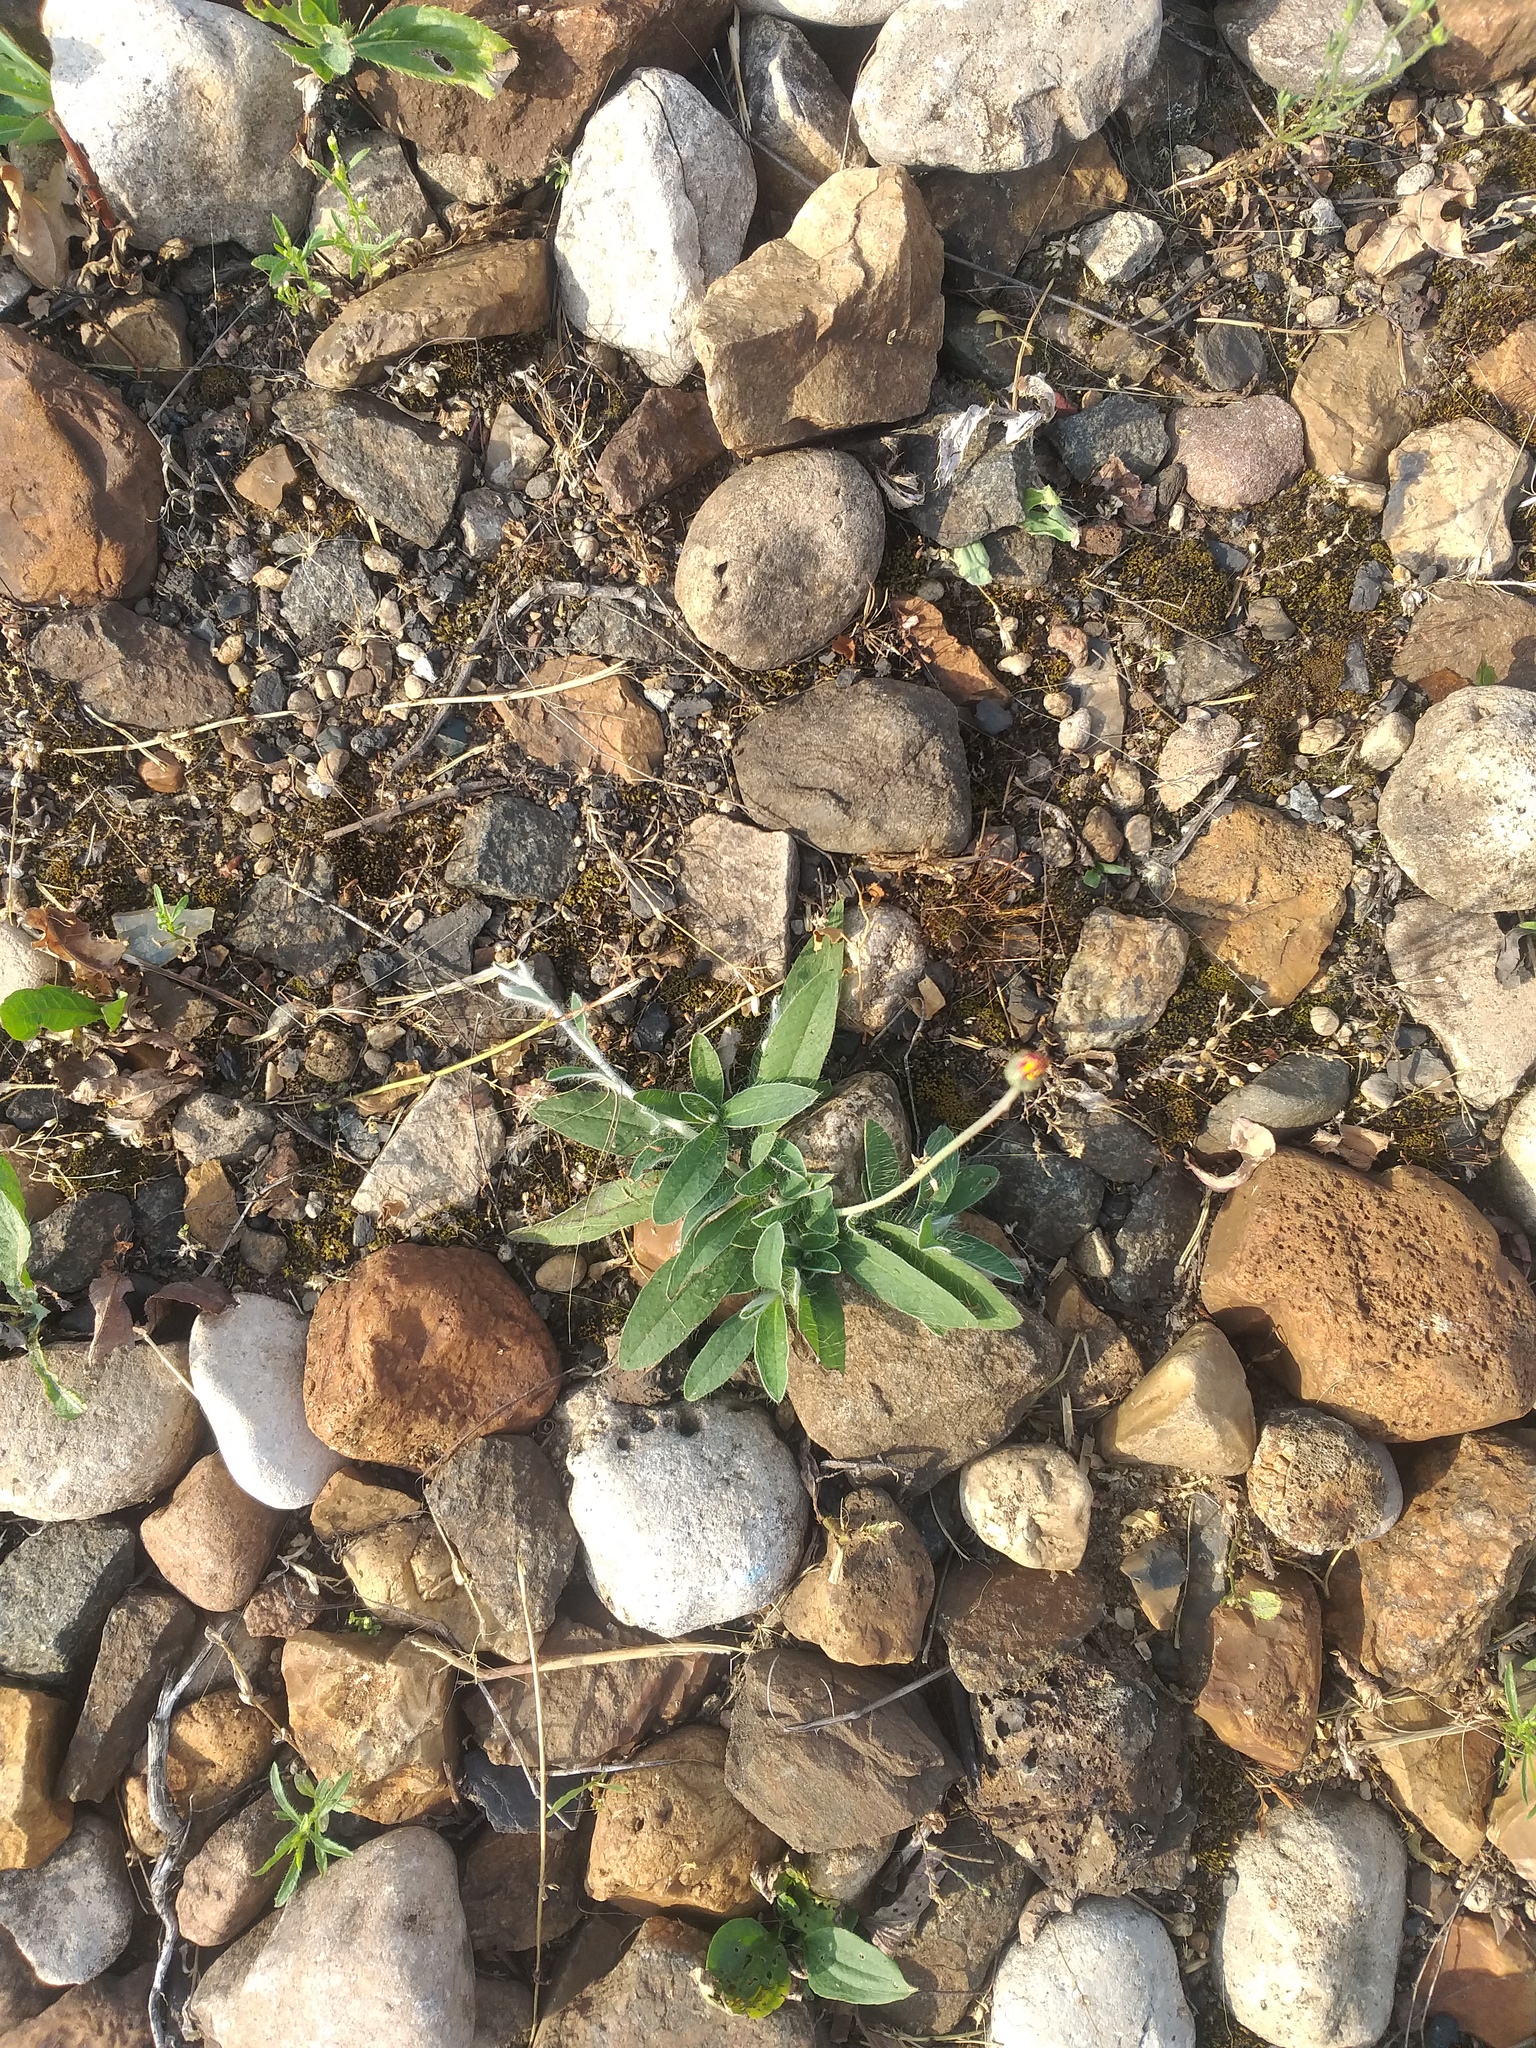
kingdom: Plantae
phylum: Tracheophyta
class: Magnoliopsida
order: Asterales
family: Asteraceae
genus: Pilosella
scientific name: Pilosella officinarum
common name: Mouse-ear hawkweed
